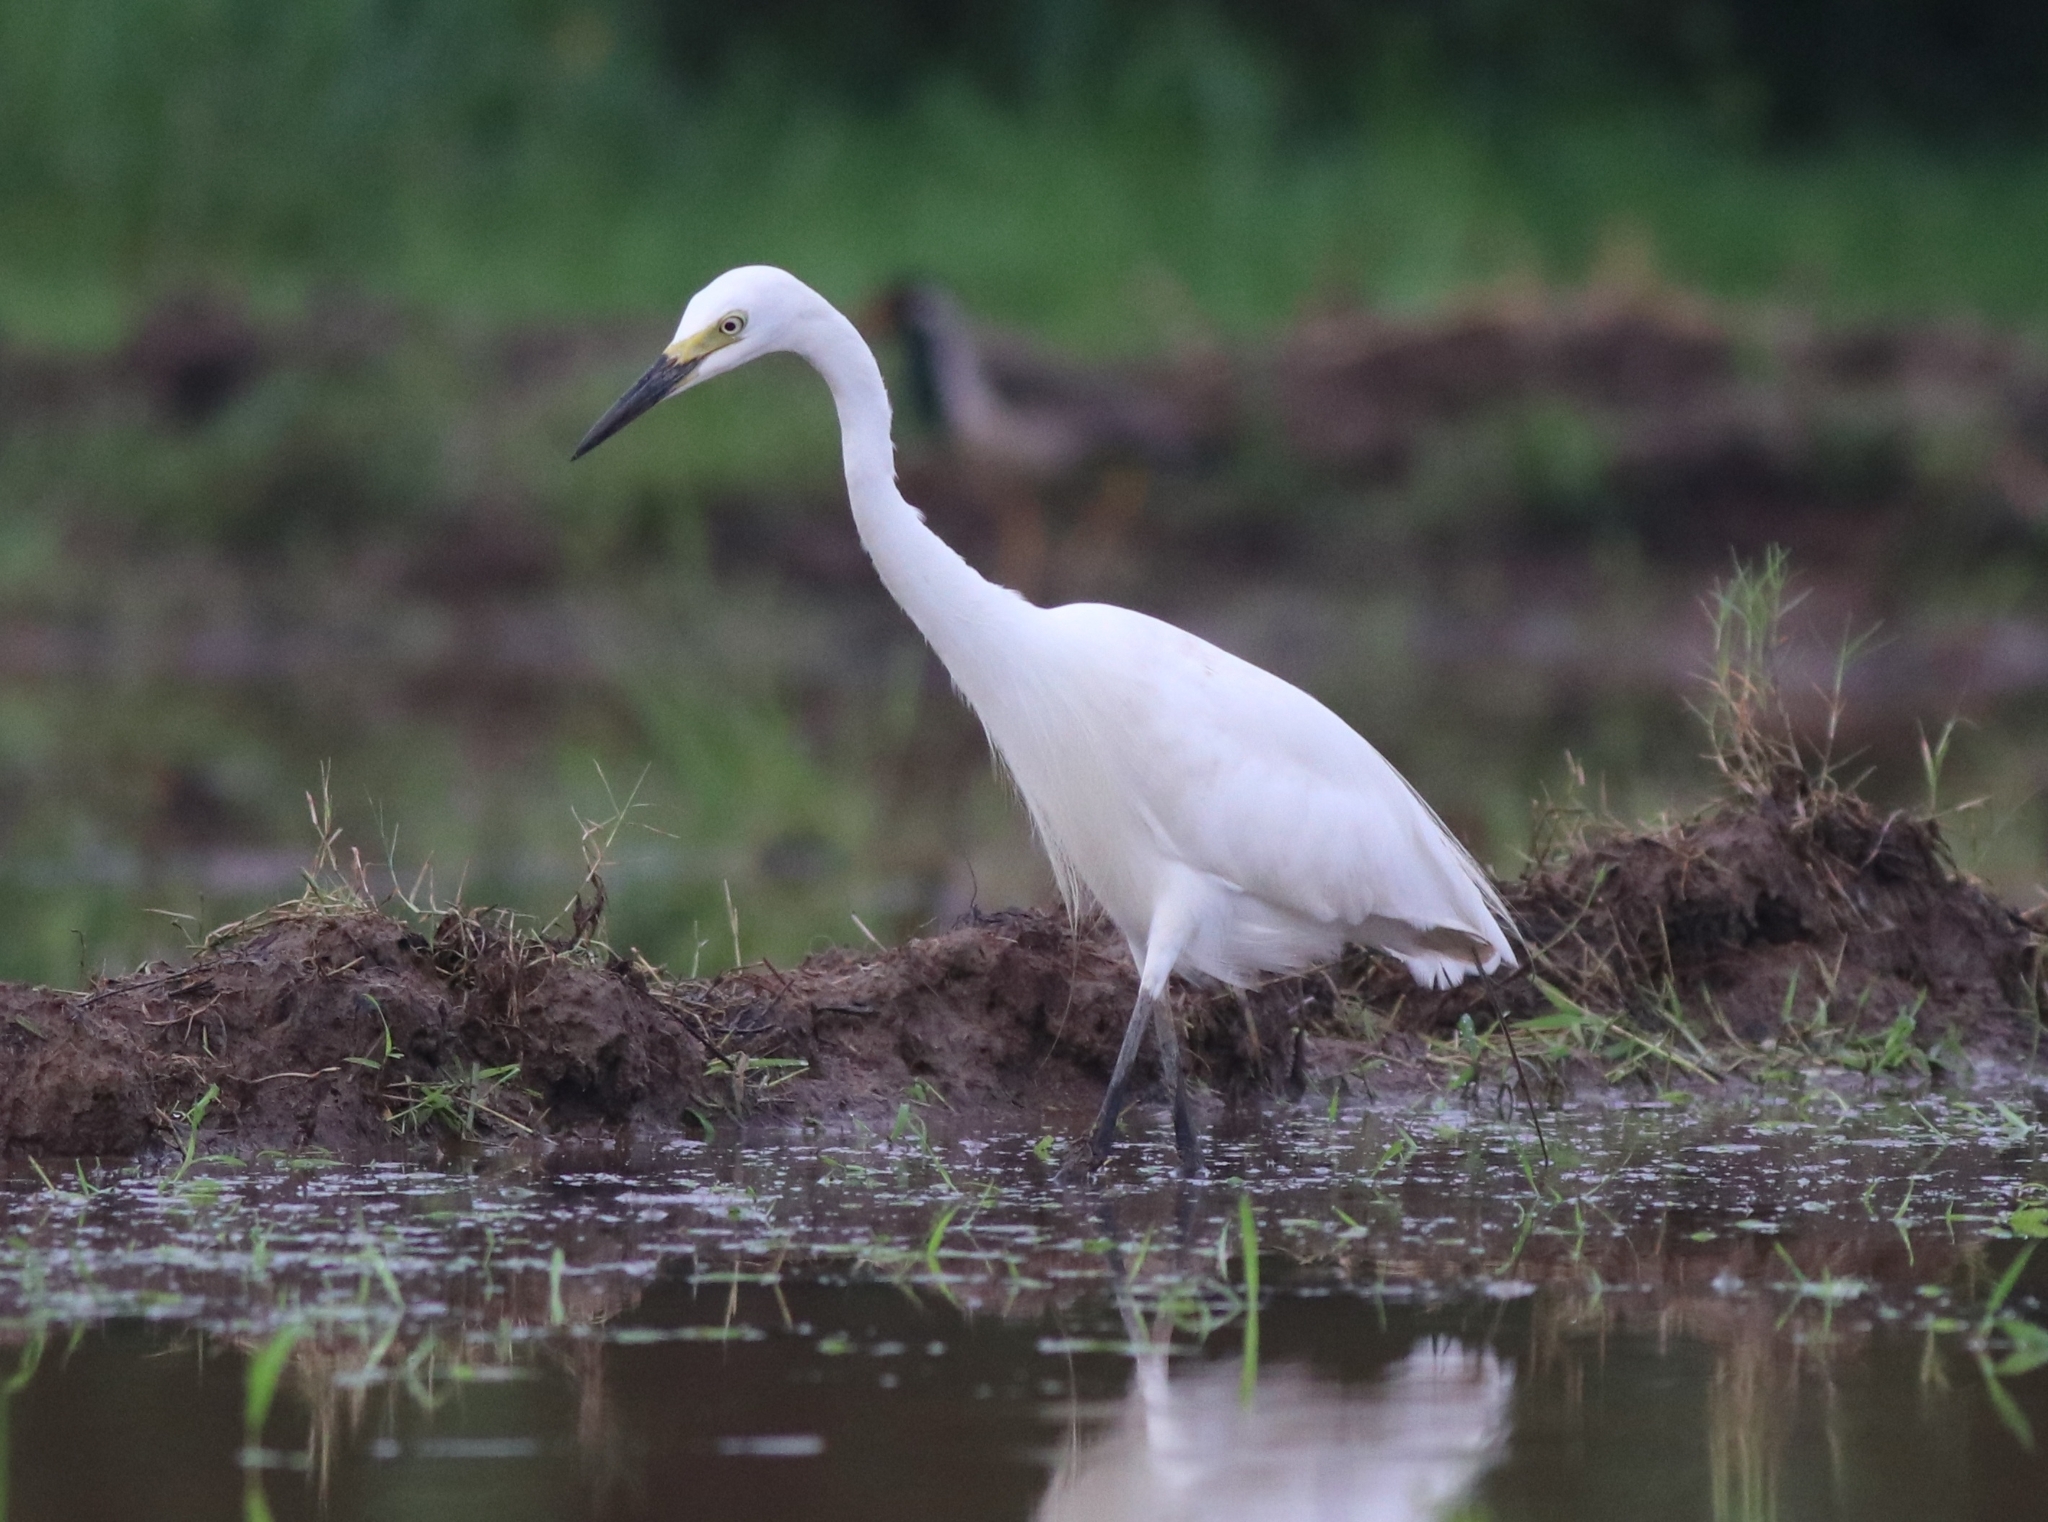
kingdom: Animalia
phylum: Chordata
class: Aves
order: Pelecaniformes
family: Ardeidae
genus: Egretta
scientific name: Egretta intermedia
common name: Intermediate egret
